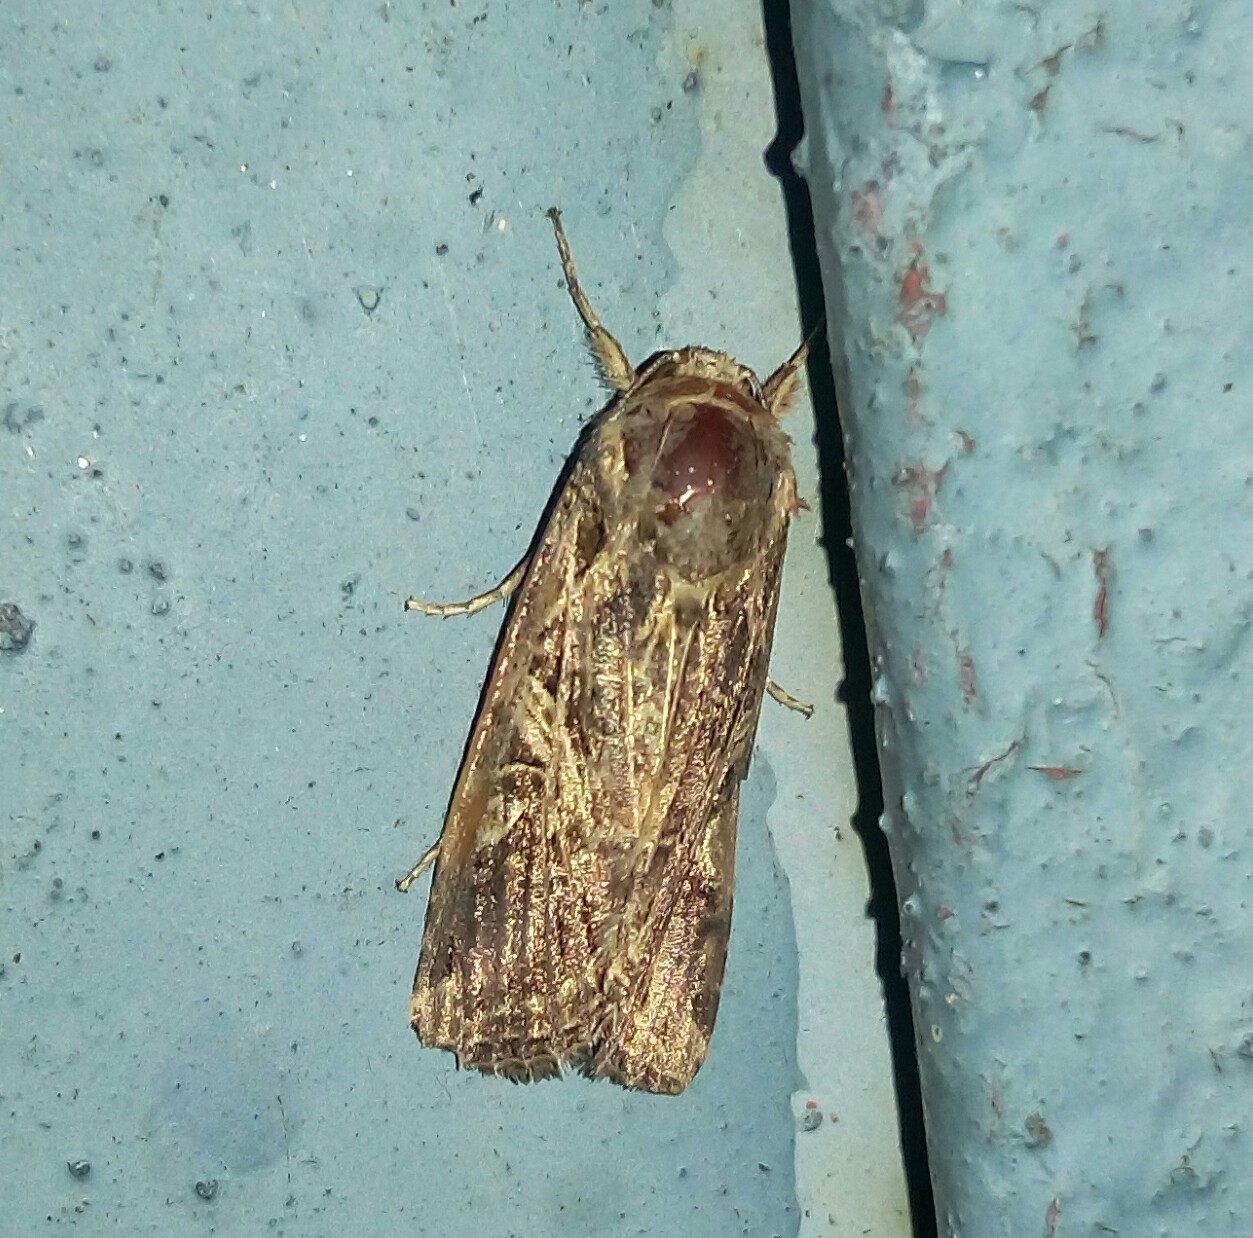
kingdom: Animalia
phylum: Arthropoda
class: Insecta
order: Lepidoptera
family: Noctuidae
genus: Spodoptera
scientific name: Spodoptera litura
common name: Asian cotton leafworm
